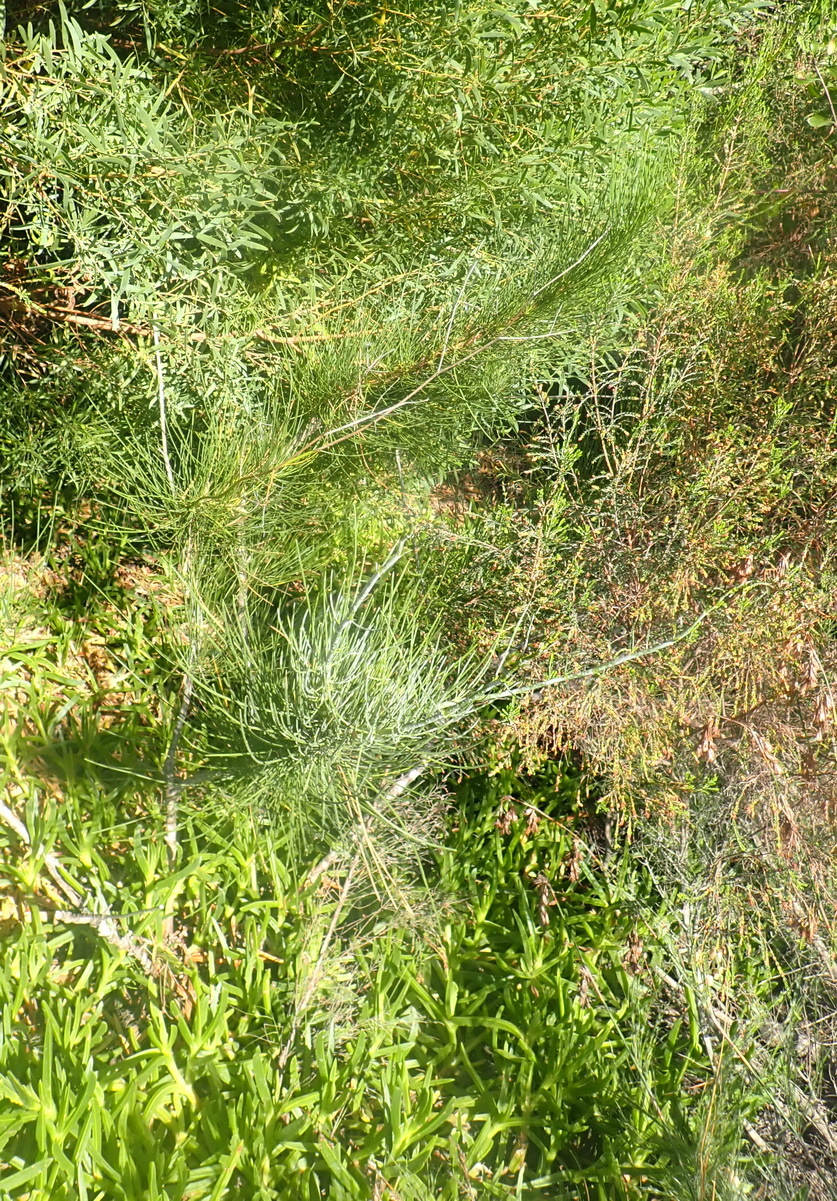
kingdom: Plantae
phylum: Tracheophyta
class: Magnoliopsida
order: Apiales
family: Apiaceae
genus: Anginon
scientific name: Anginon difforme
